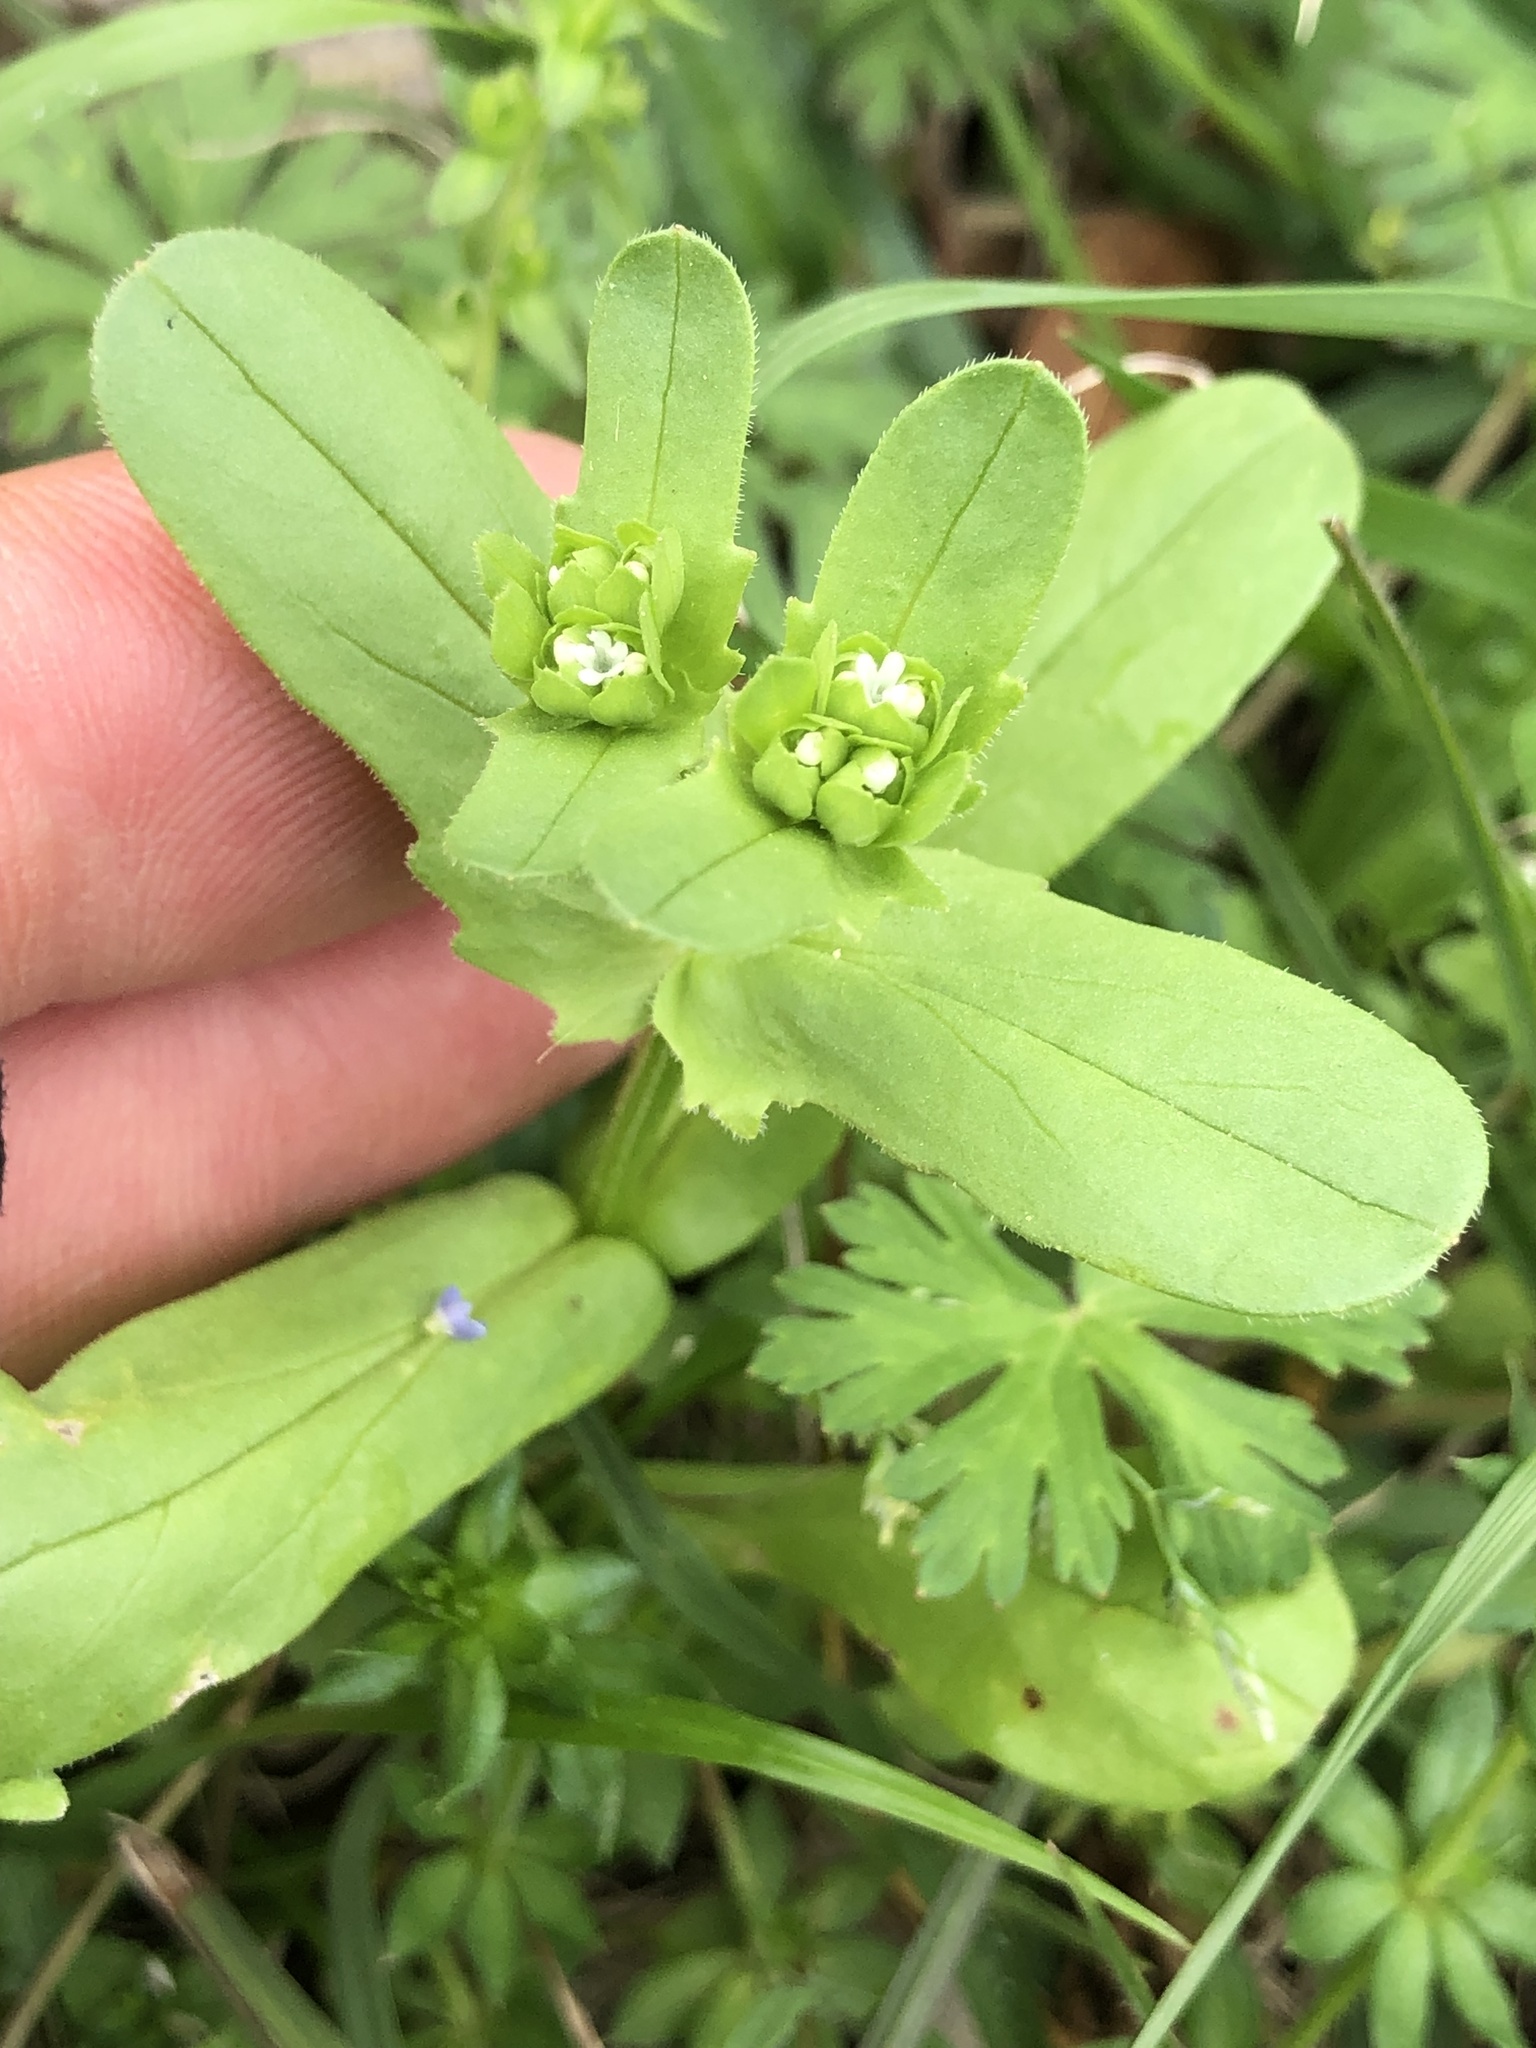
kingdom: Plantae
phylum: Tracheophyta
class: Magnoliopsida
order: Dipsacales
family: Caprifoliaceae
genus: Valerianella
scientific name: Valerianella radiata
